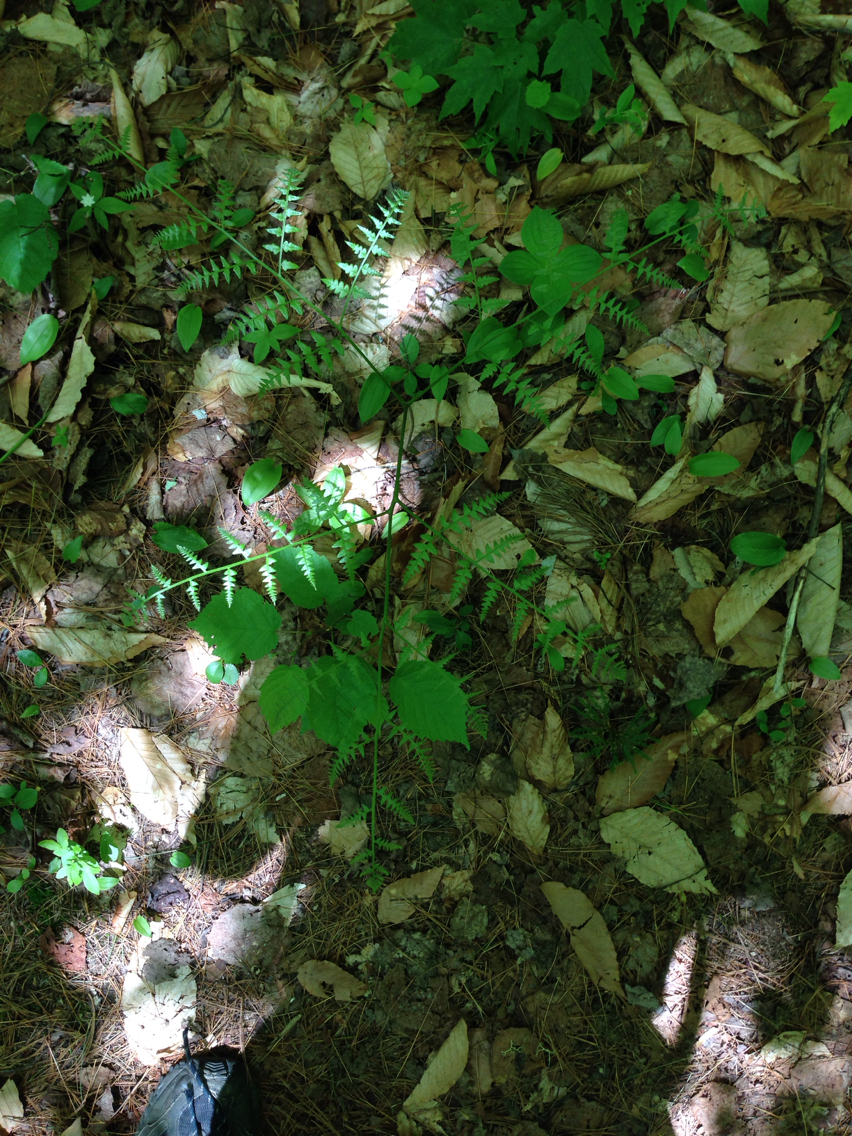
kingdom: Plantae
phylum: Tracheophyta
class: Polypodiopsida
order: Polypodiales
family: Dennstaedtiaceae
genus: Pteridium
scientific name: Pteridium aquilinum
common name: Bracken
